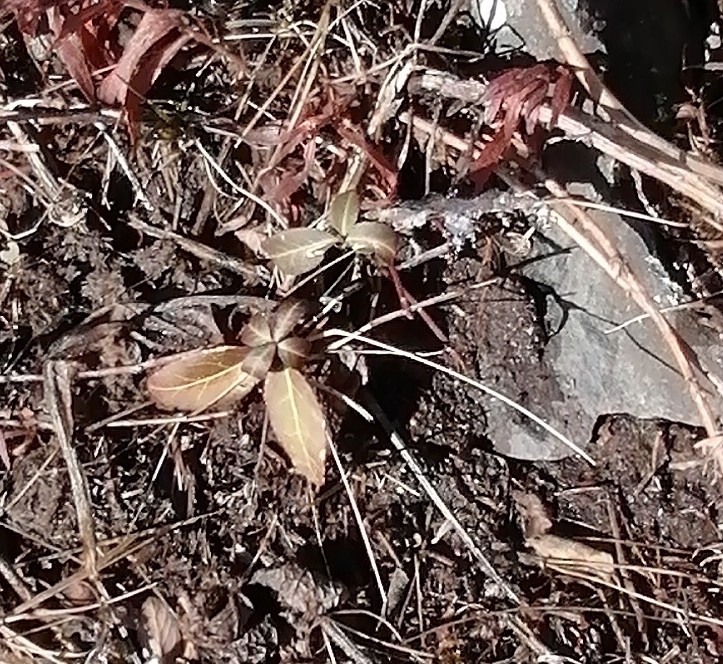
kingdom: Plantae
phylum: Tracheophyta
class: Magnoliopsida
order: Celastrales
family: Celastraceae
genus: Euonymus
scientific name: Euonymus semenovii
